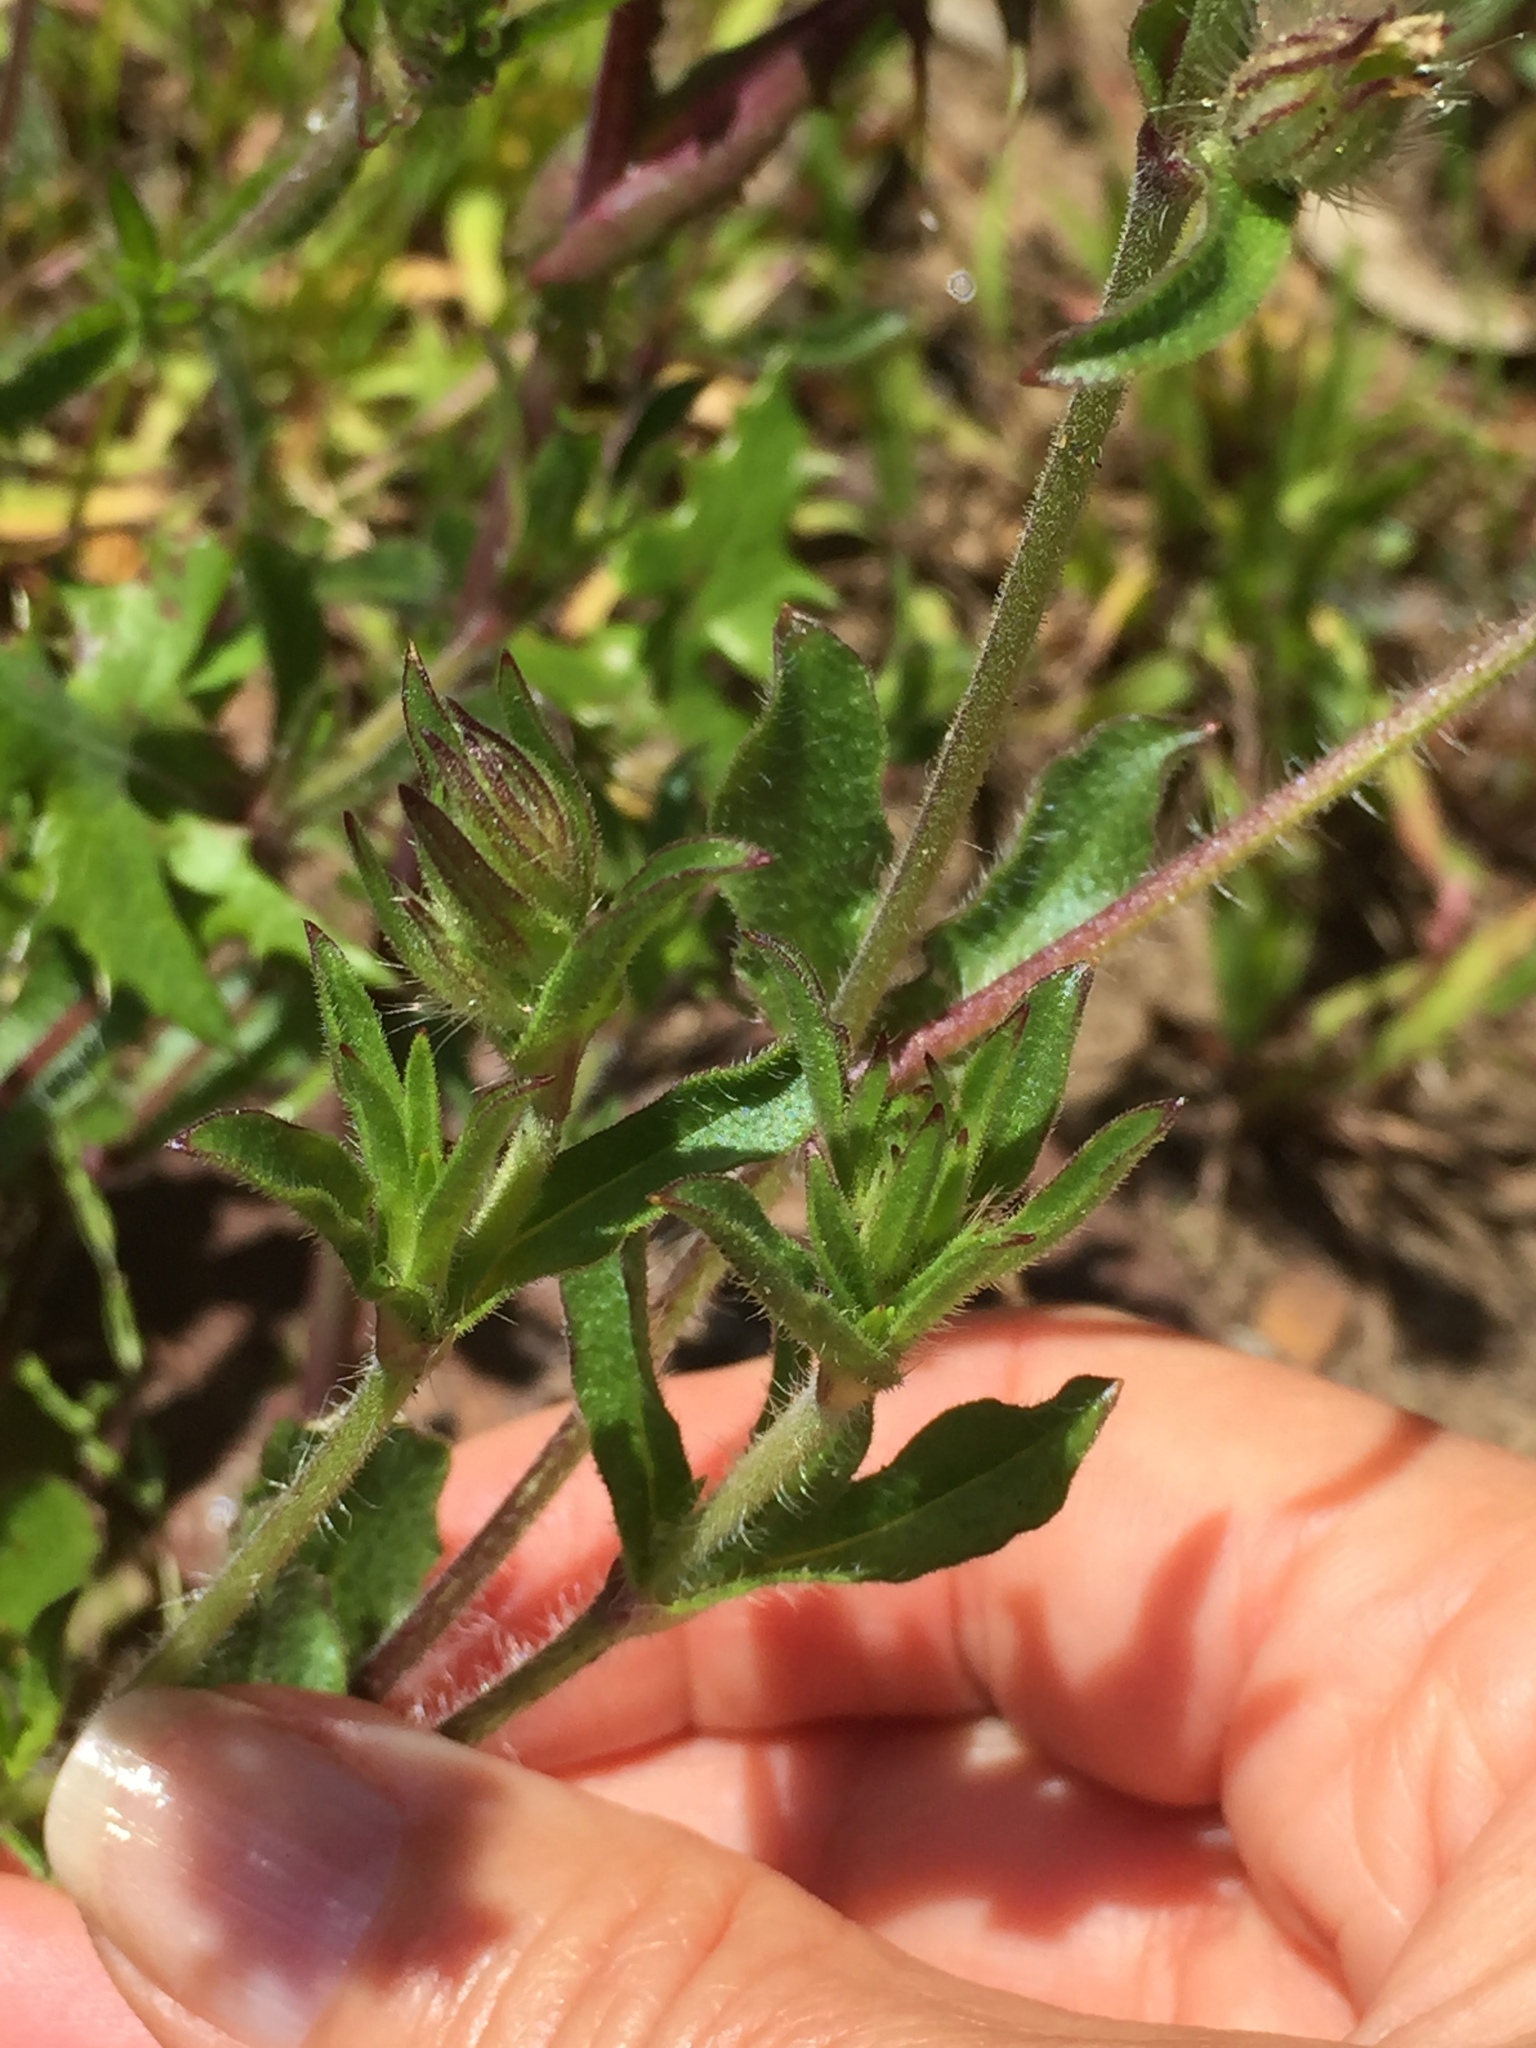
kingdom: Plantae
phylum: Tracheophyta
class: Magnoliopsida
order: Caryophyllales
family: Caryophyllaceae
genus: Silene
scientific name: Silene gallica
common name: Small-flowered catchfly
